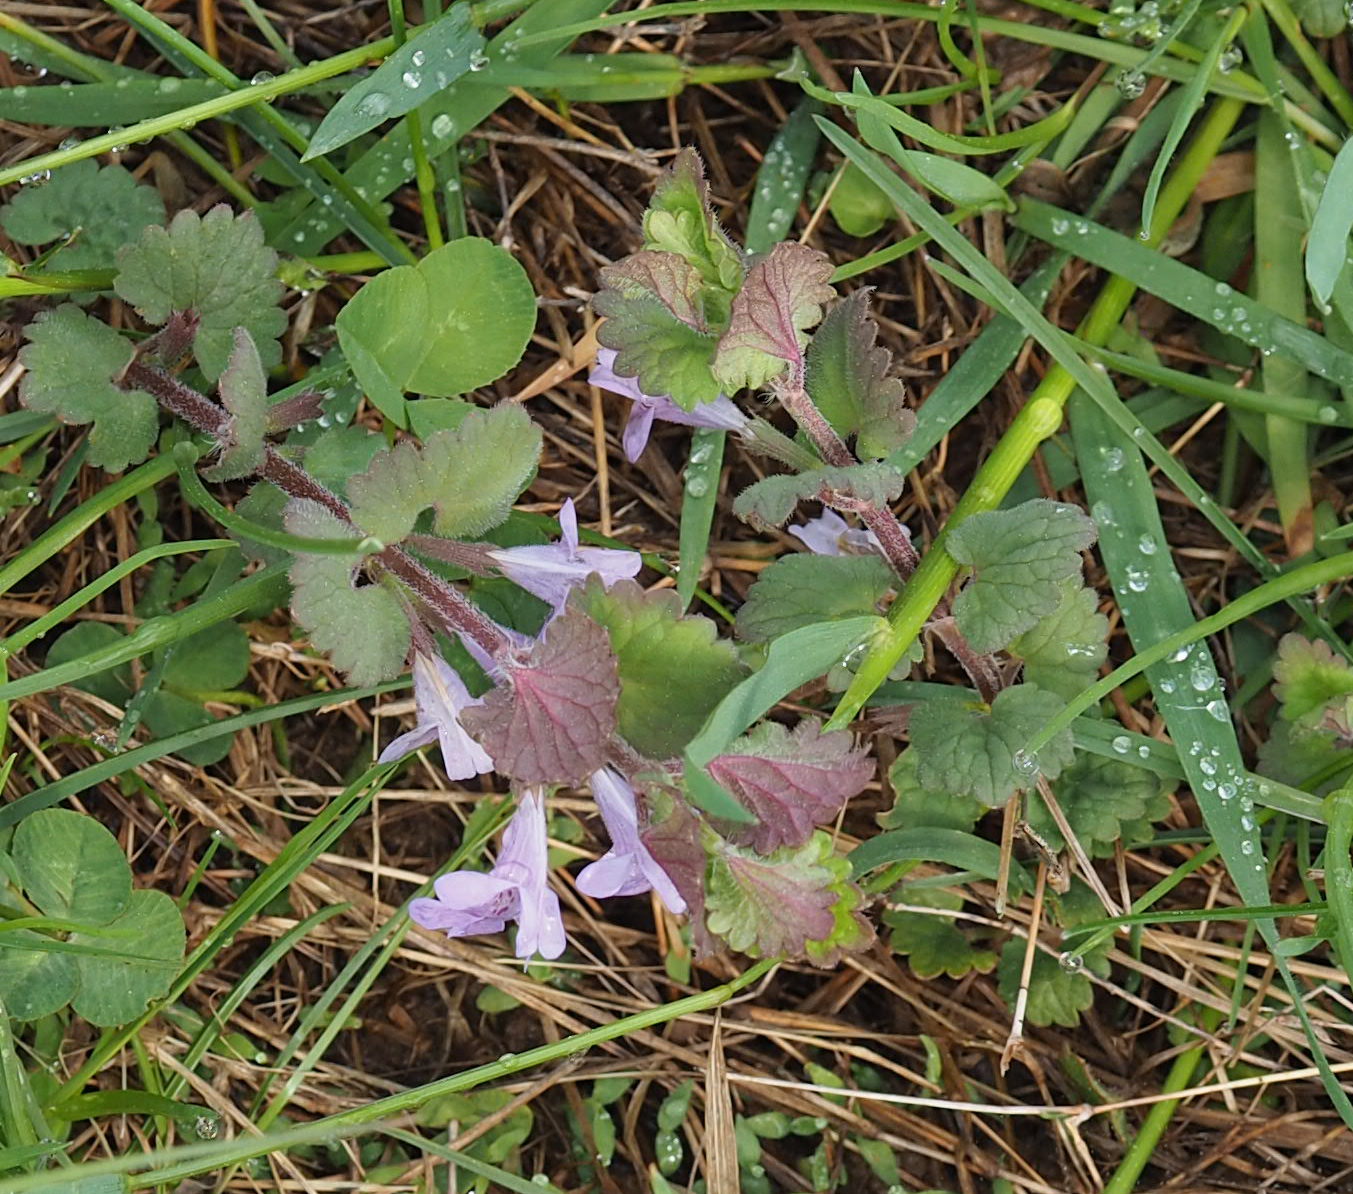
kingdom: Plantae
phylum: Tracheophyta
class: Magnoliopsida
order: Lamiales
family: Lamiaceae
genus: Glechoma
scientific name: Glechoma hederacea
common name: Ground ivy
